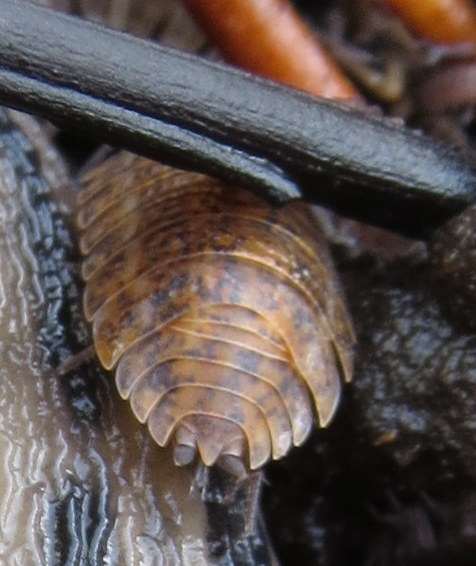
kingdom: Animalia
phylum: Arthropoda
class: Malacostraca
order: Isopoda
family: Trachelipodidae
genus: Trachelipus
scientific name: Trachelipus rathkii
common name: Isopod
